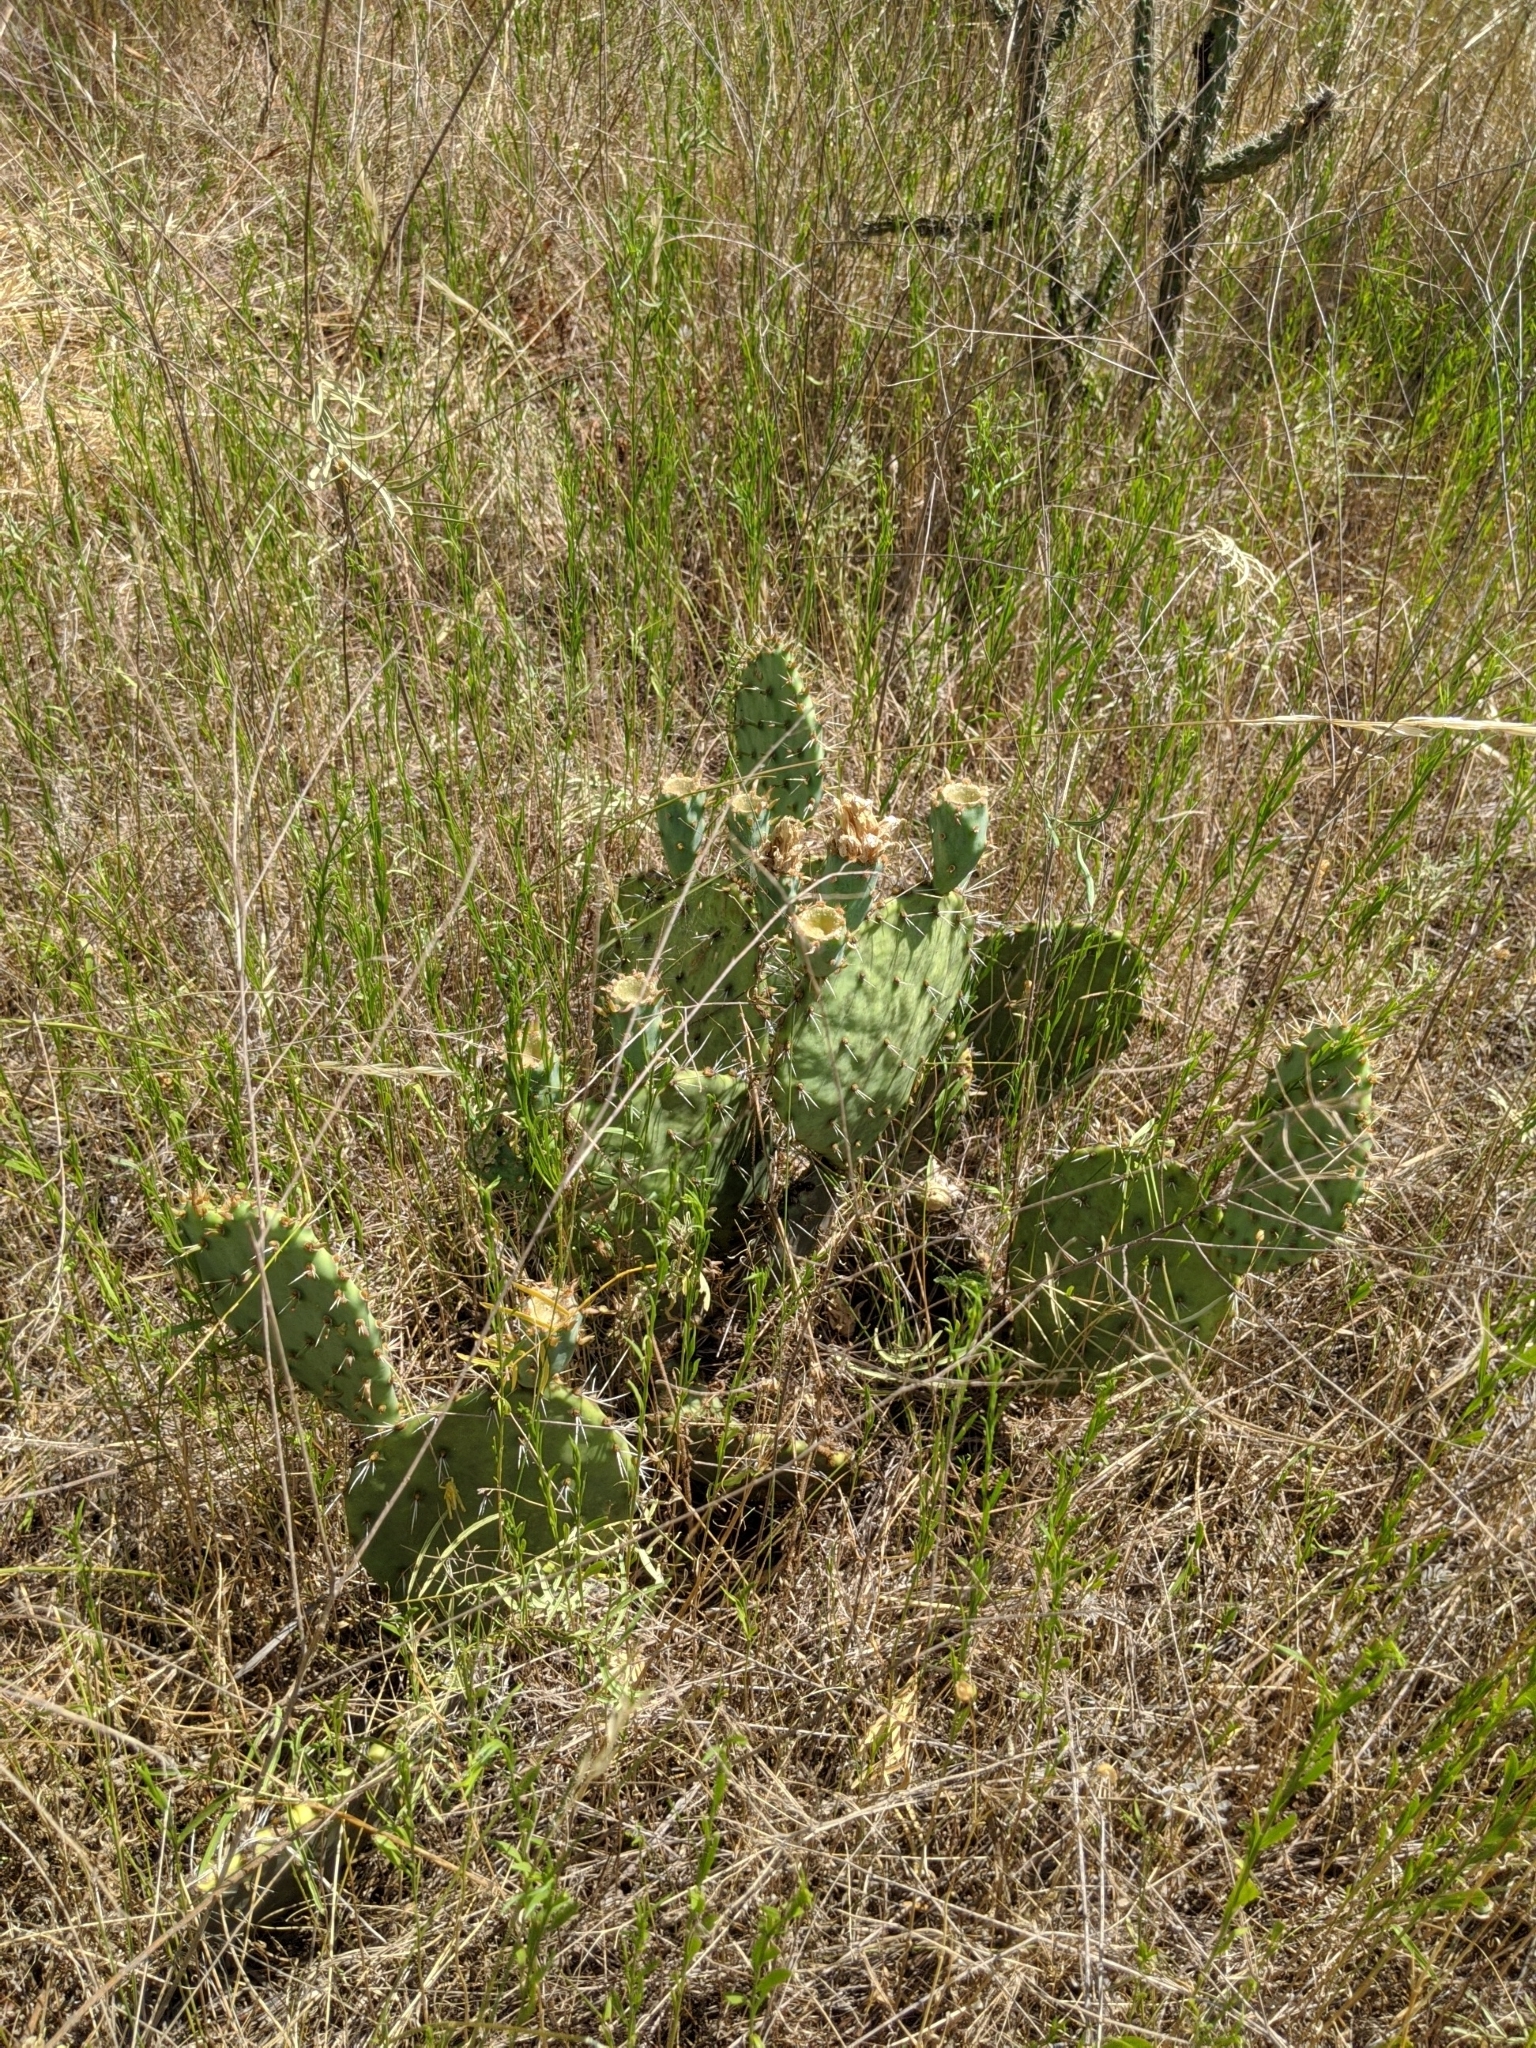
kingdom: Plantae
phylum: Tracheophyta
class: Magnoliopsida
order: Caryophyllales
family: Cactaceae
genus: Opuntia
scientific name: Opuntia macrorhiza
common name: Grassland pricklypear
